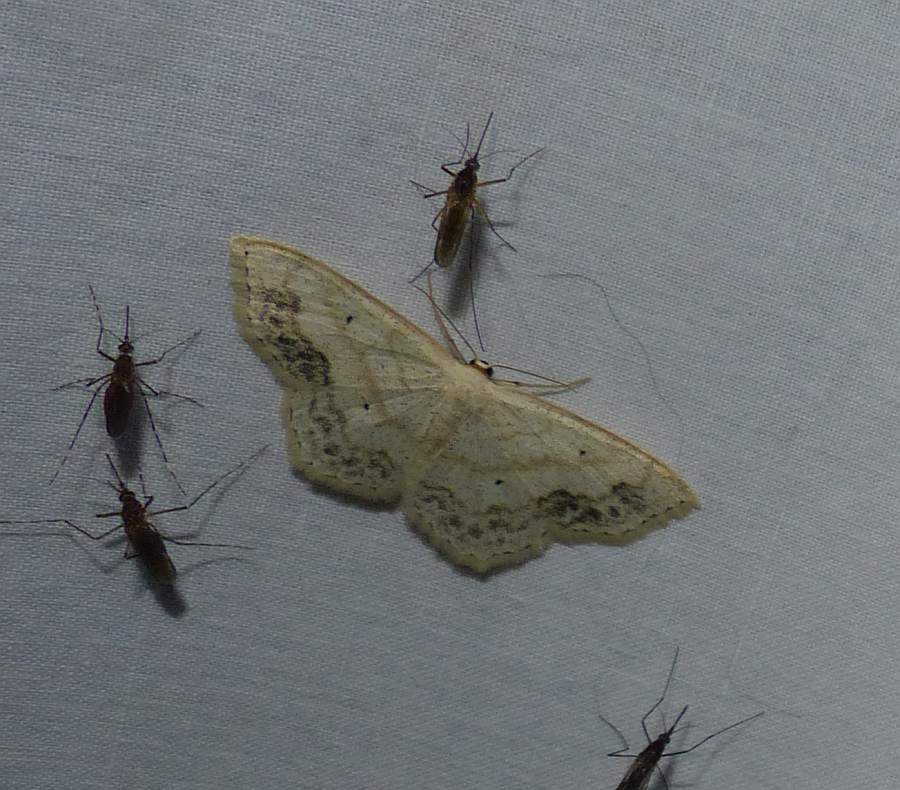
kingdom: Animalia
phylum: Arthropoda
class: Insecta
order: Lepidoptera
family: Geometridae
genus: Scopula
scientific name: Scopula limboundata
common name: Large lace border
